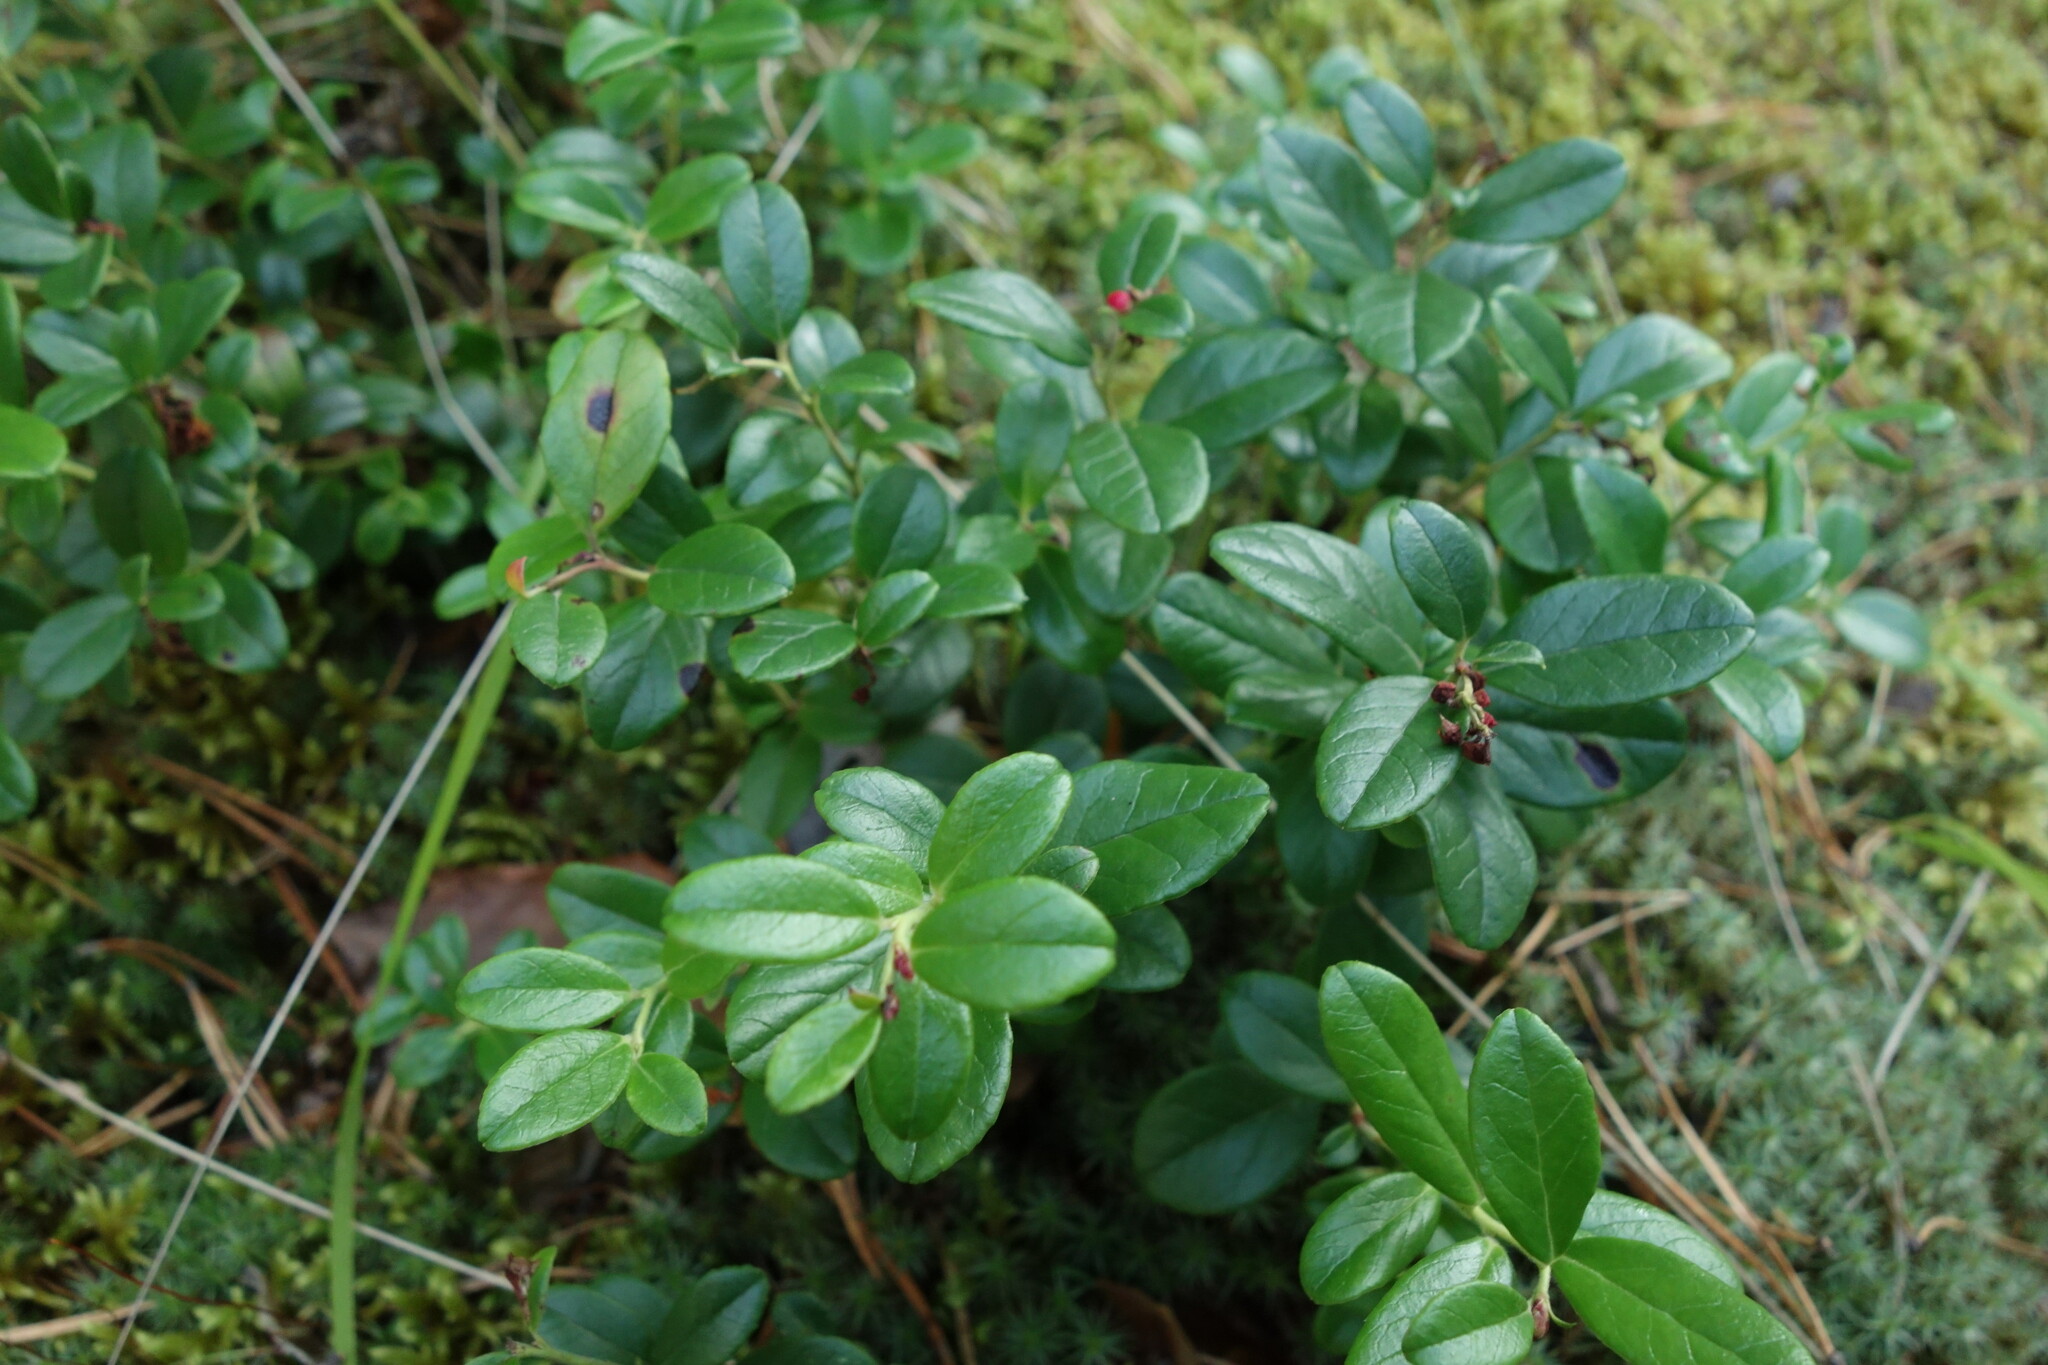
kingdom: Plantae
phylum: Tracheophyta
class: Magnoliopsida
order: Ericales
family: Ericaceae
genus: Vaccinium
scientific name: Vaccinium vitis-idaea
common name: Cowberry
